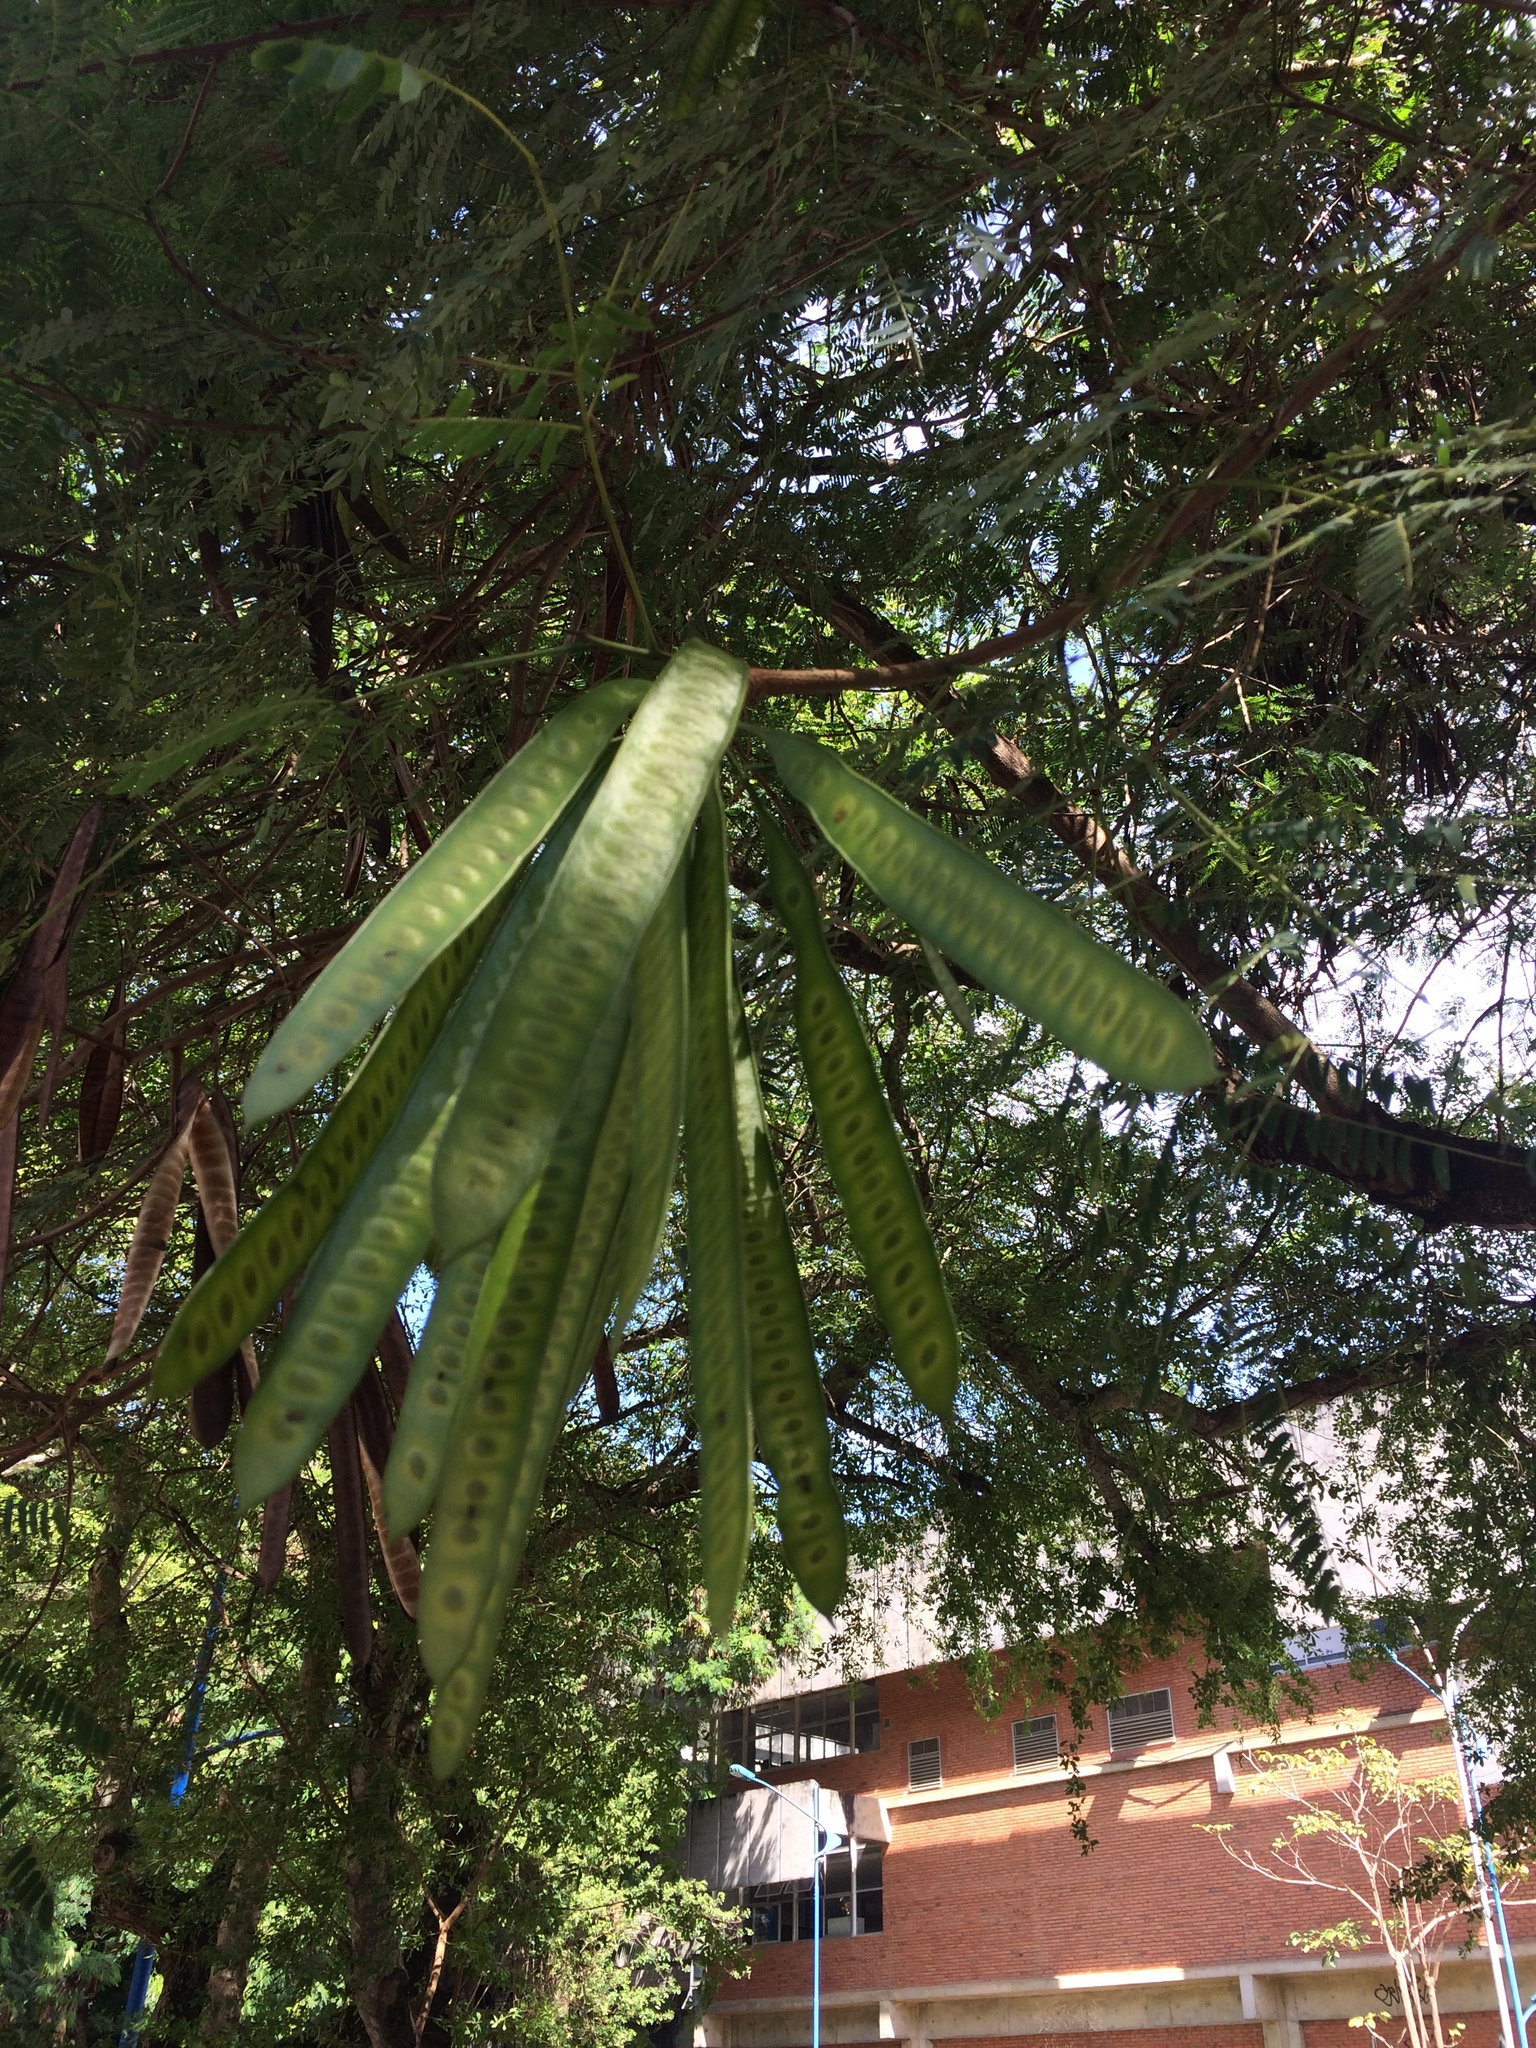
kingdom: Plantae
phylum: Tracheophyta
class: Magnoliopsida
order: Fabales
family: Fabaceae
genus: Leucaena
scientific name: Leucaena leucocephala
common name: White leadtree
